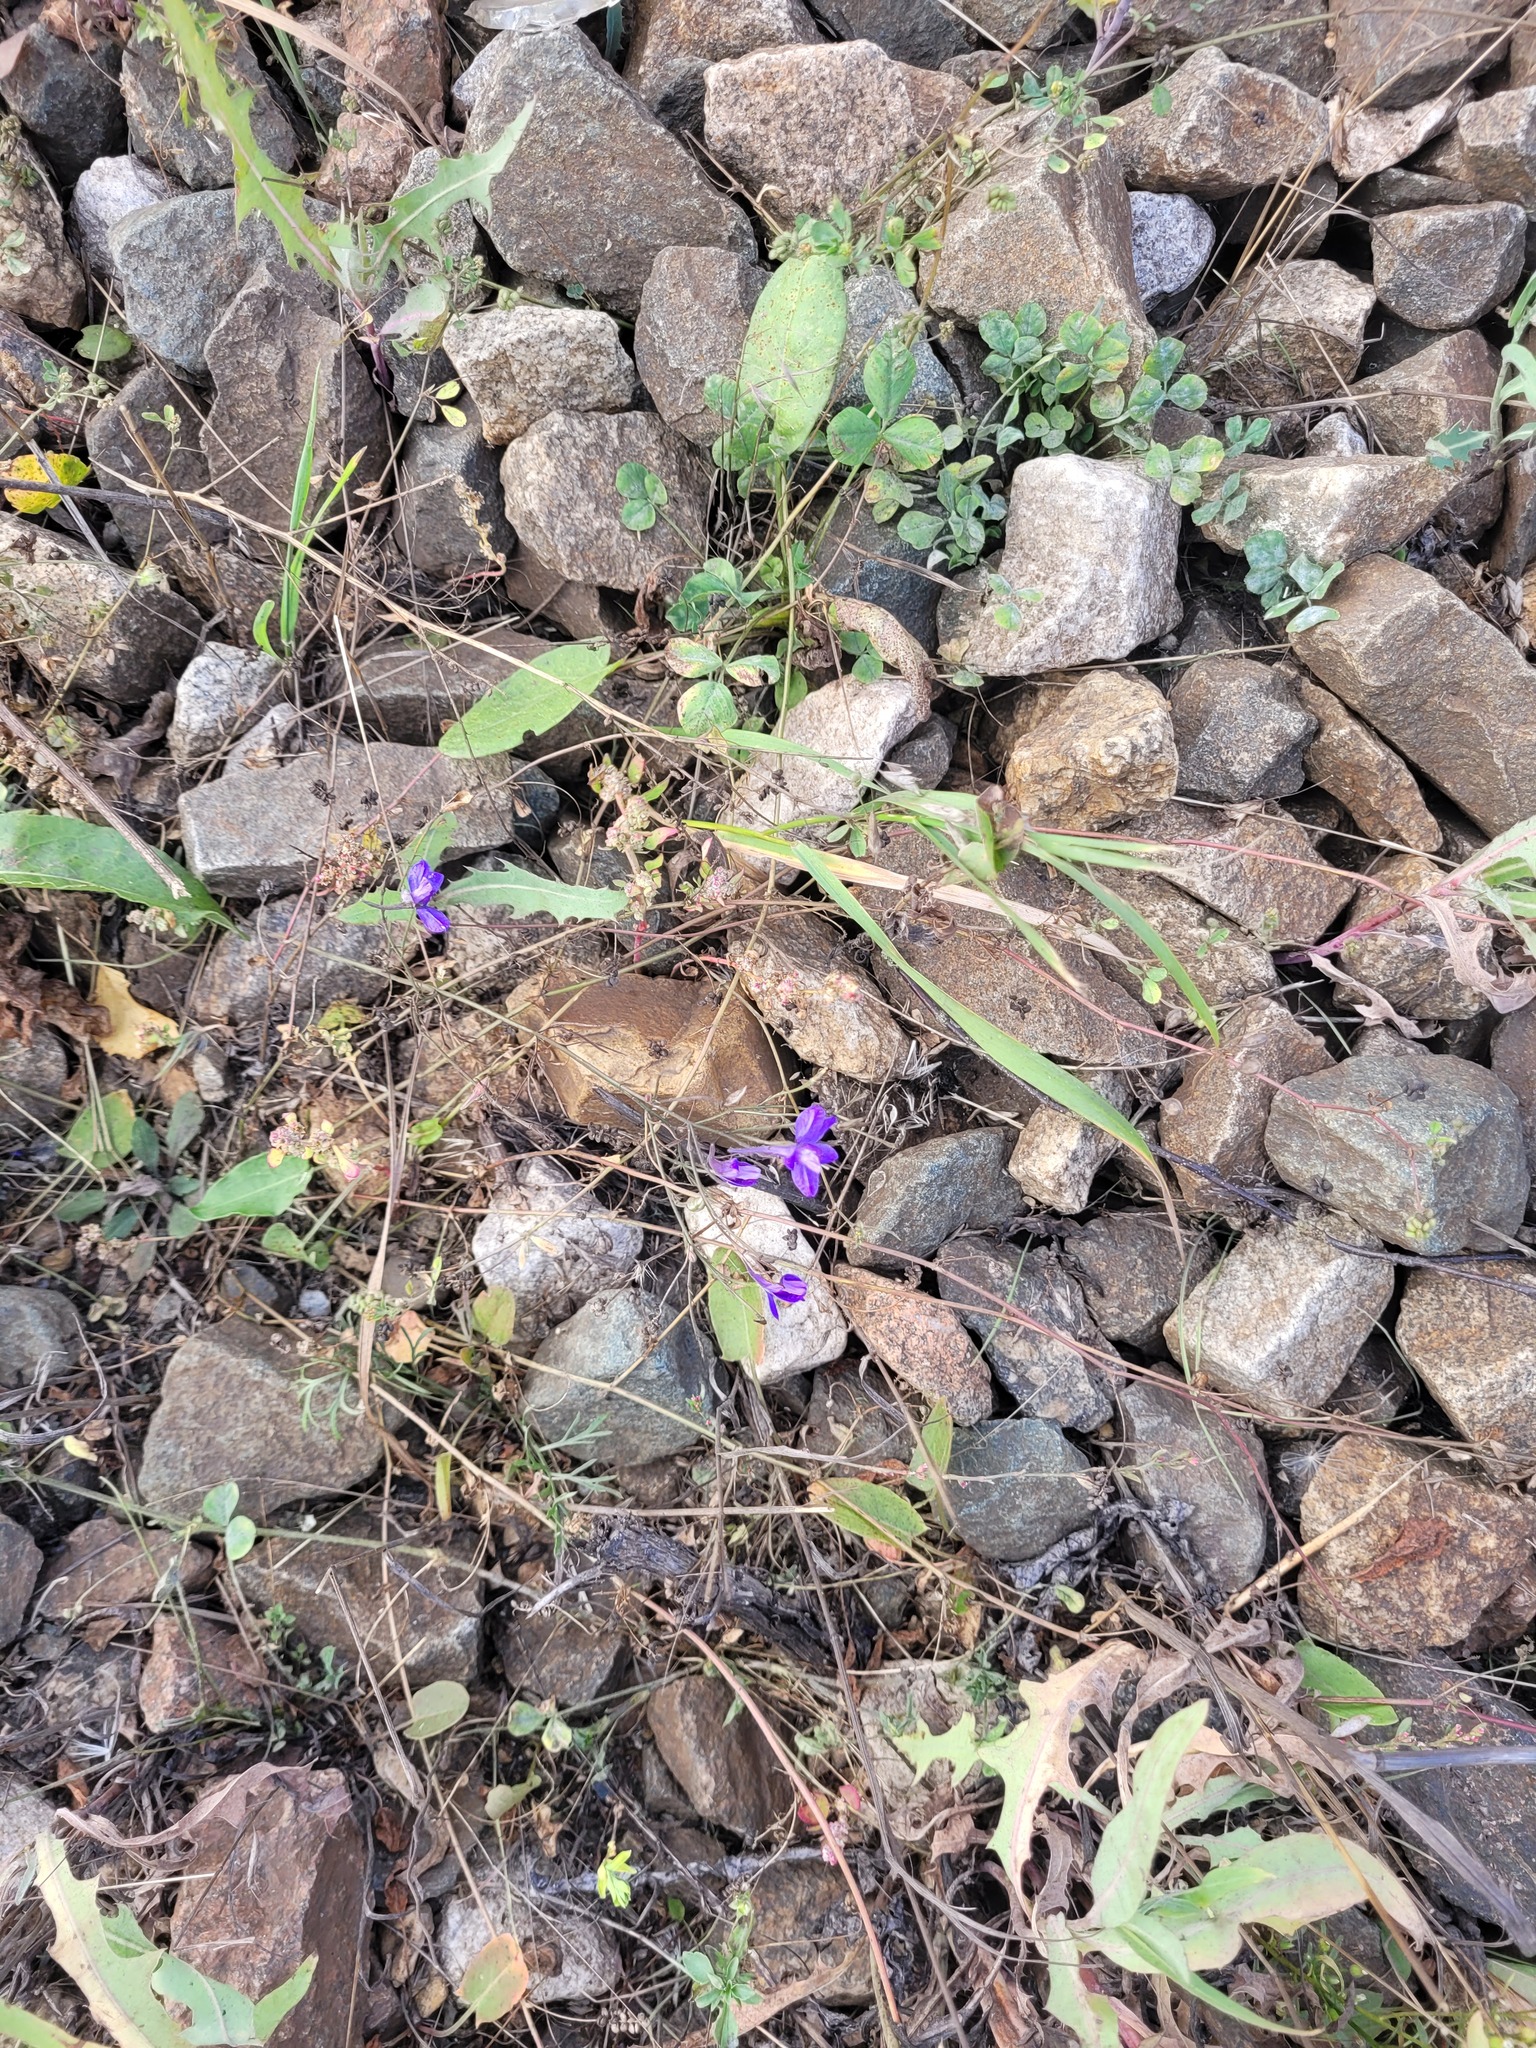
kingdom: Plantae
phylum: Tracheophyta
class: Magnoliopsida
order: Ranunculales
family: Ranunculaceae
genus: Delphinium
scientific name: Delphinium consolida
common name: Branching larkspur
